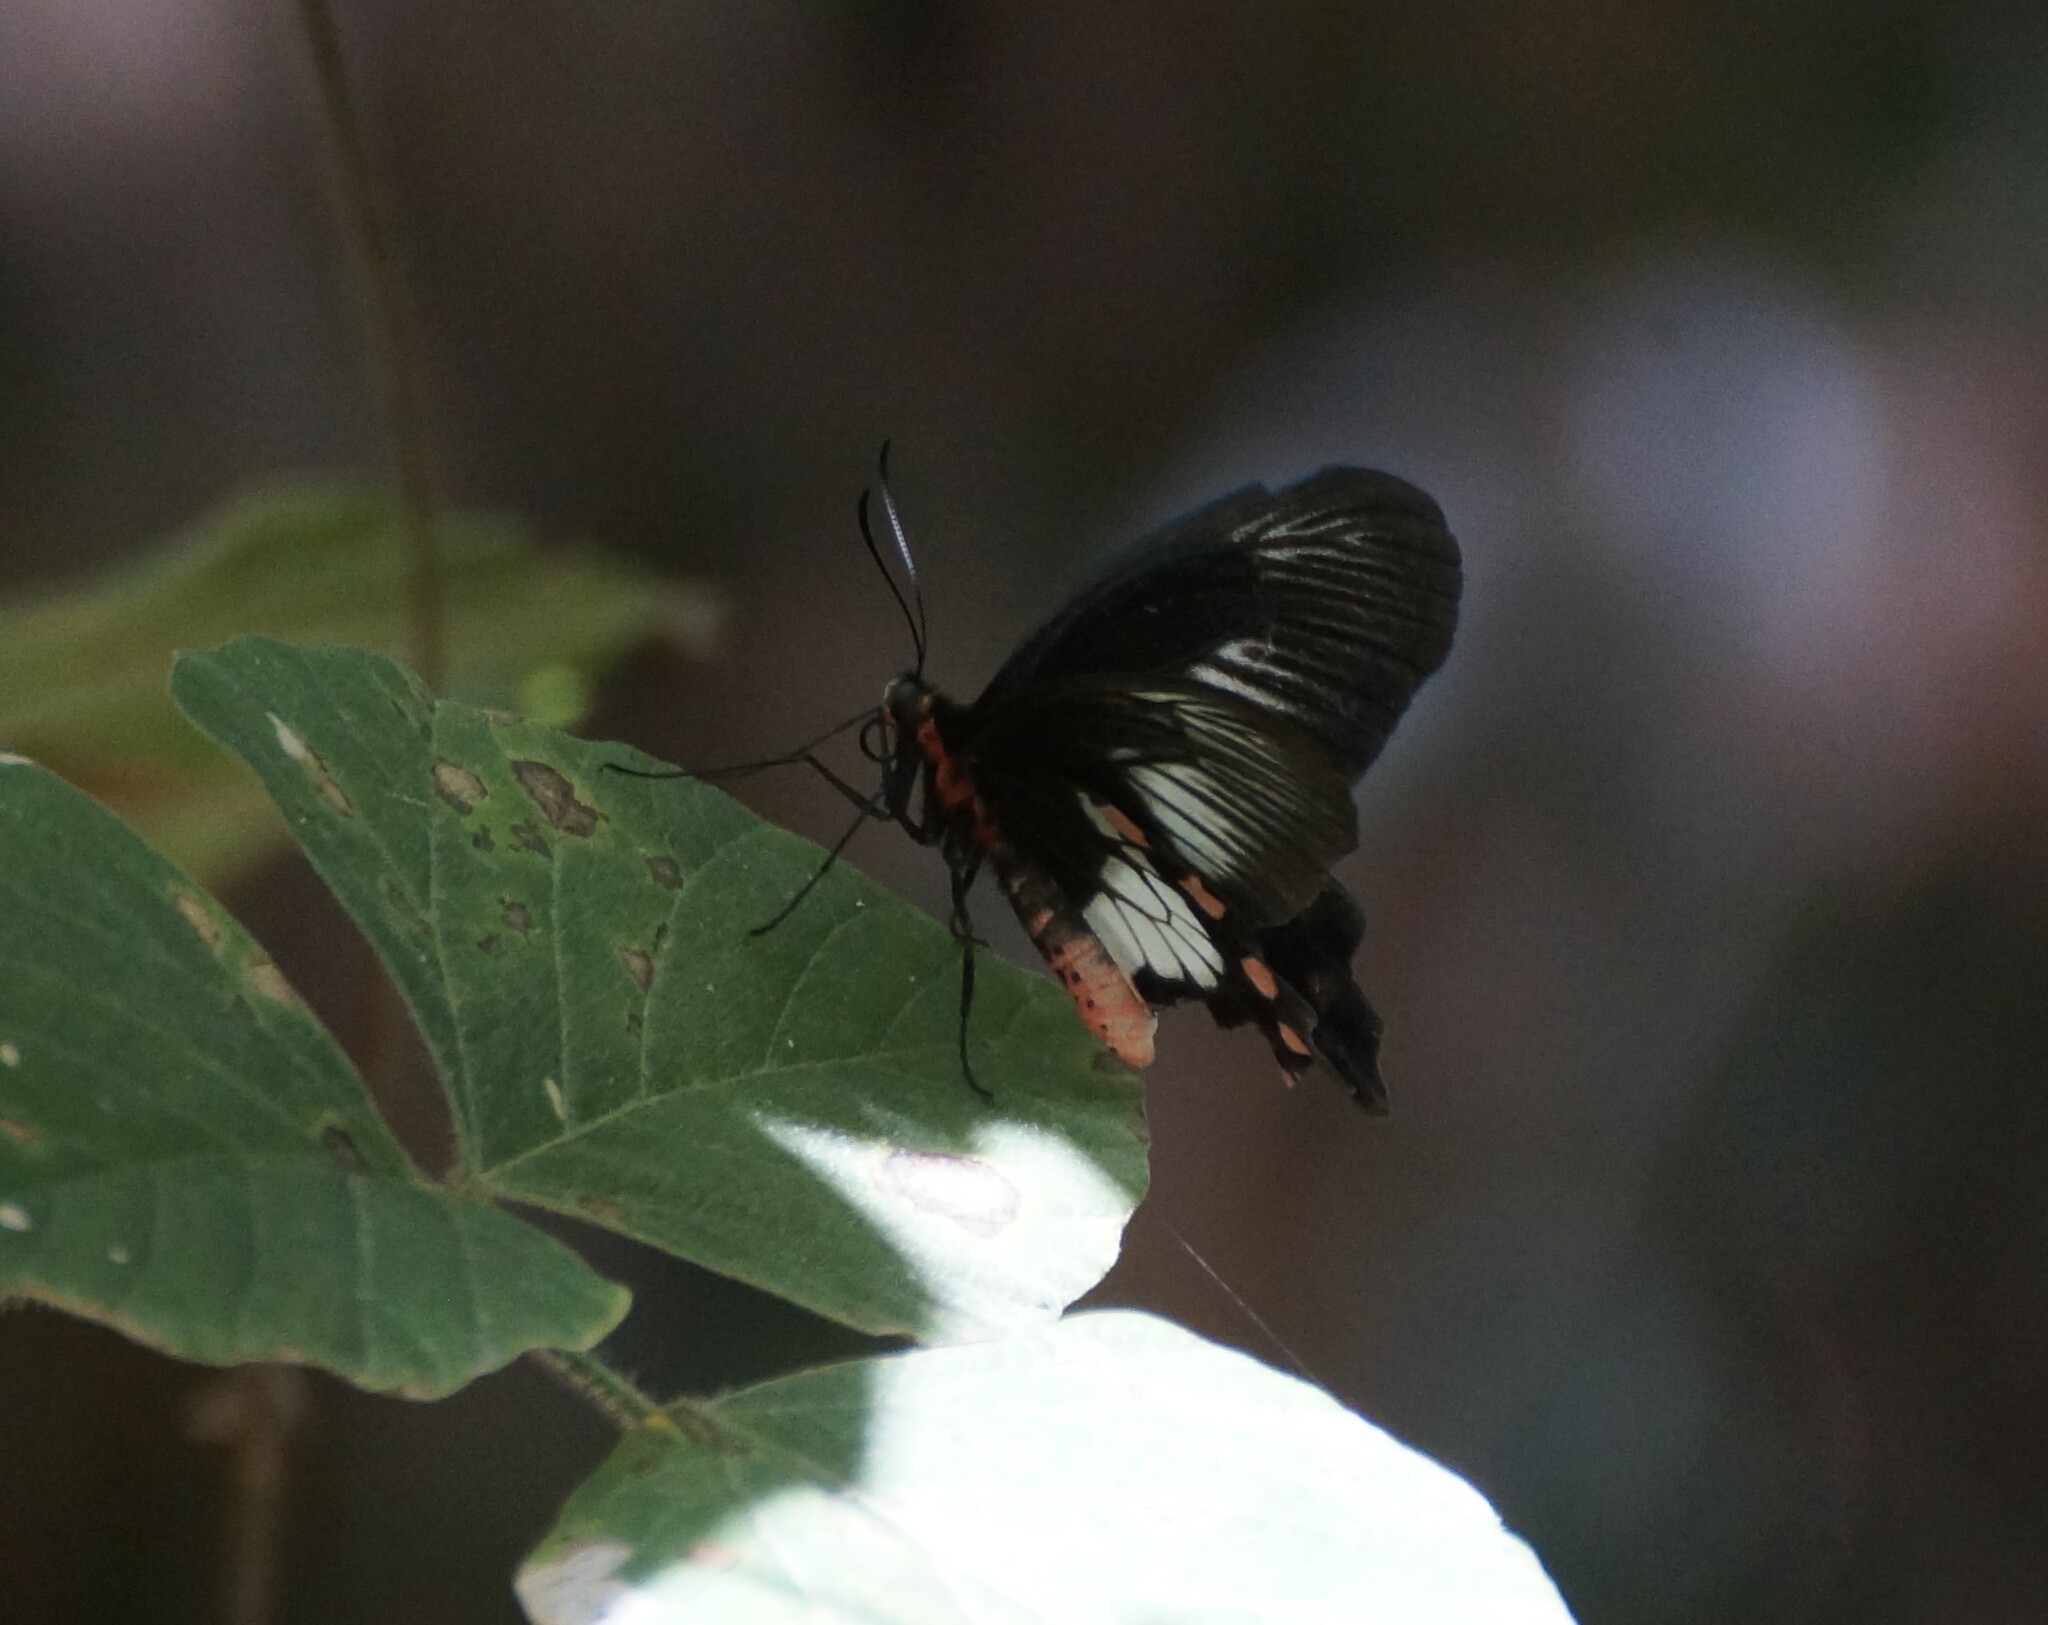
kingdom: Animalia
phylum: Arthropoda
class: Insecta
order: Lepidoptera
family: Papilionidae
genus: Pachliopta
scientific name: Pachliopta polydorus
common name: Red-bodied swallowtail
